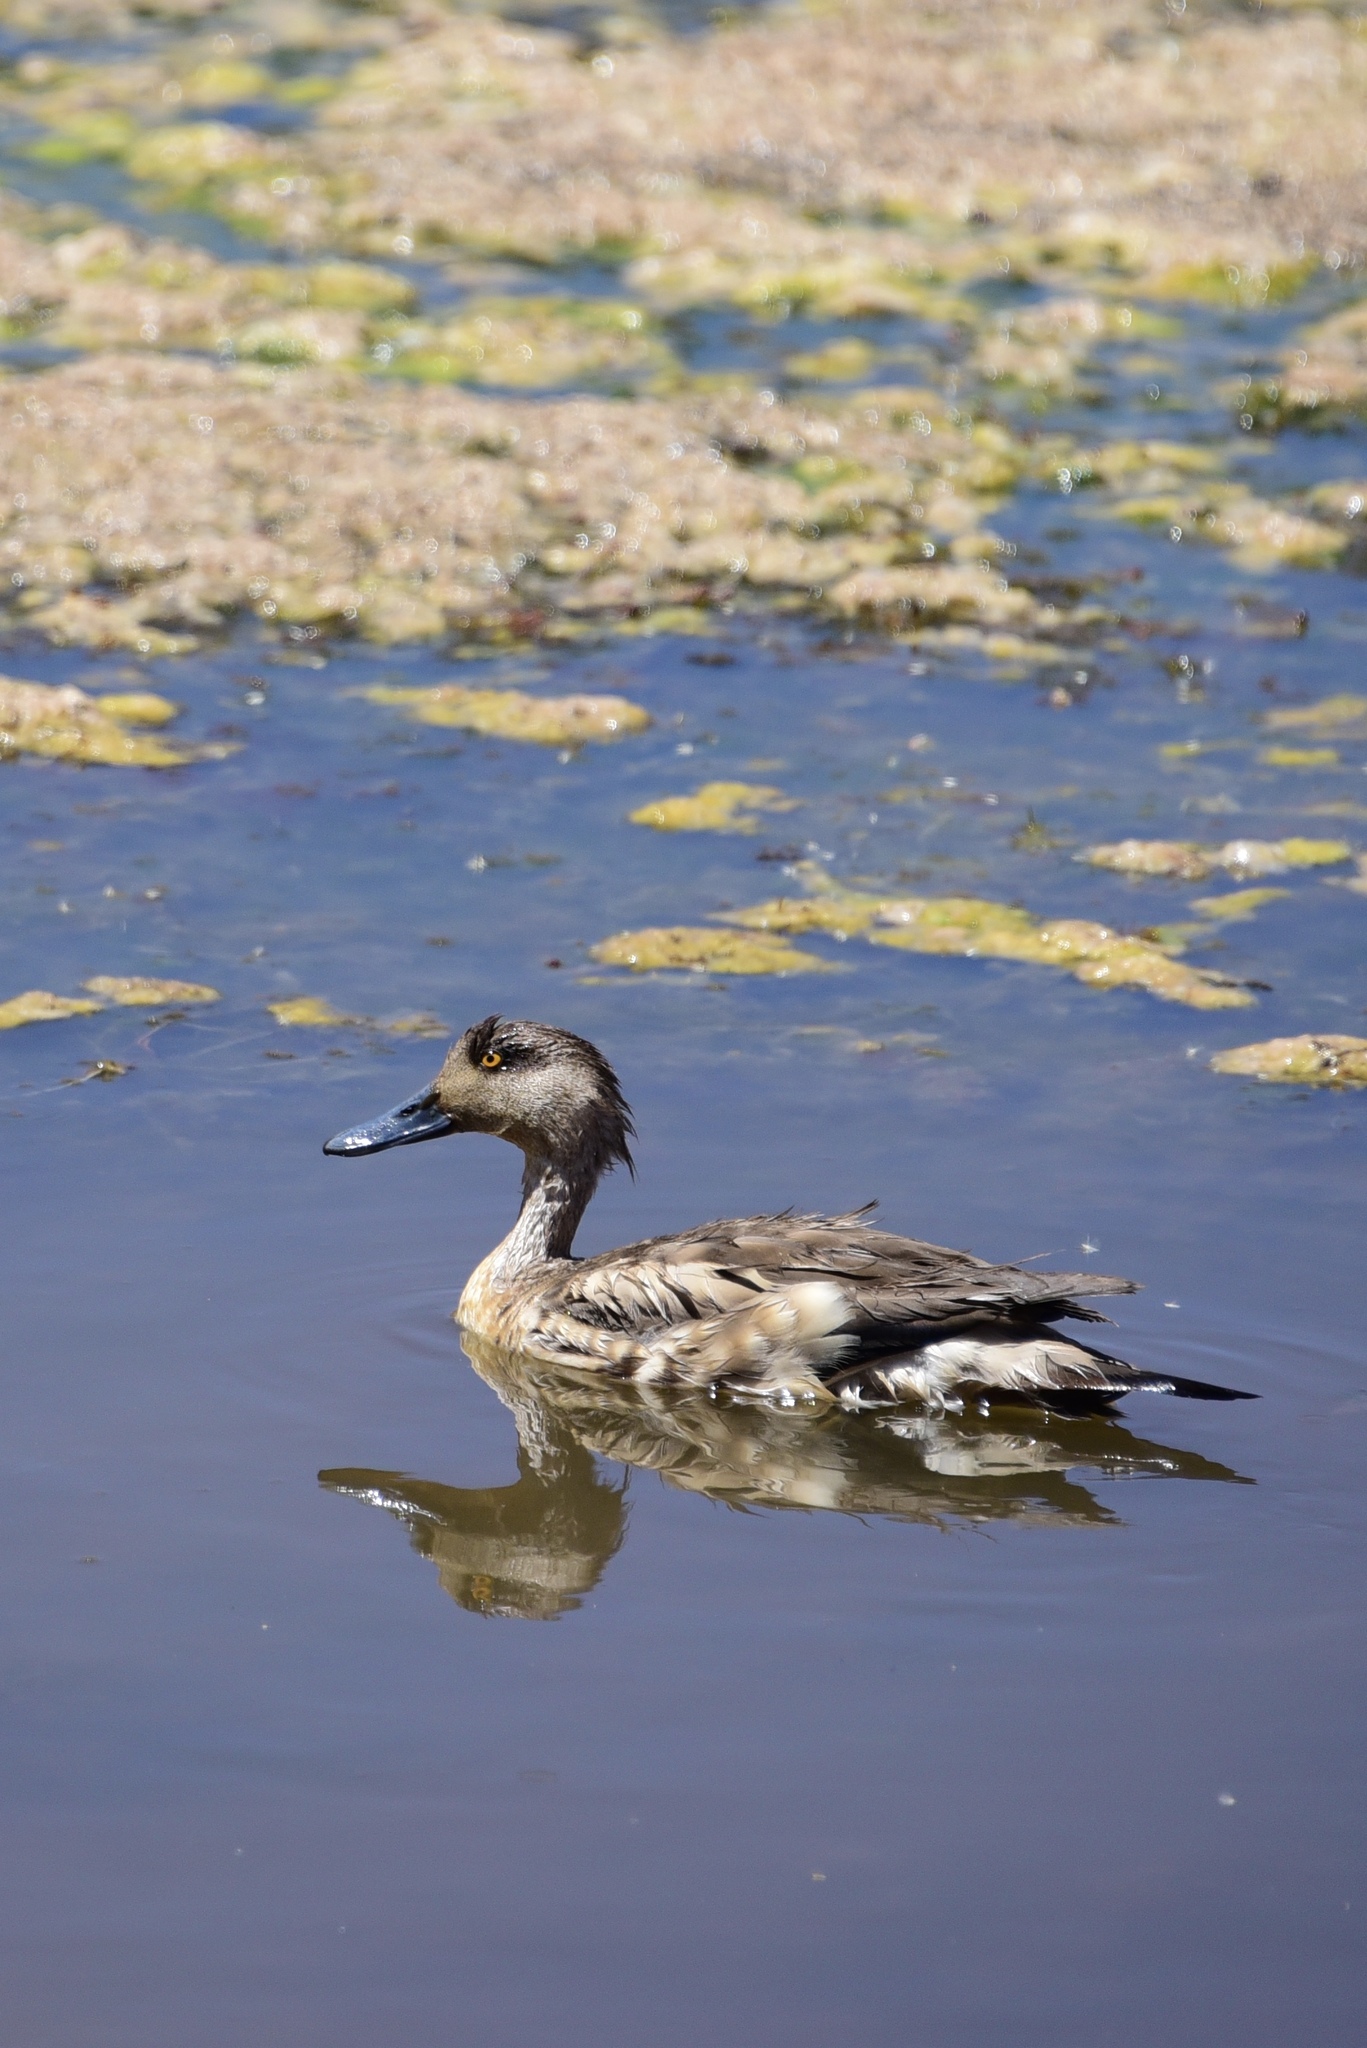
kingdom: Animalia
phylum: Chordata
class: Aves
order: Anseriformes
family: Anatidae
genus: Lophonetta
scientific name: Lophonetta specularioides
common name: Crested duck
